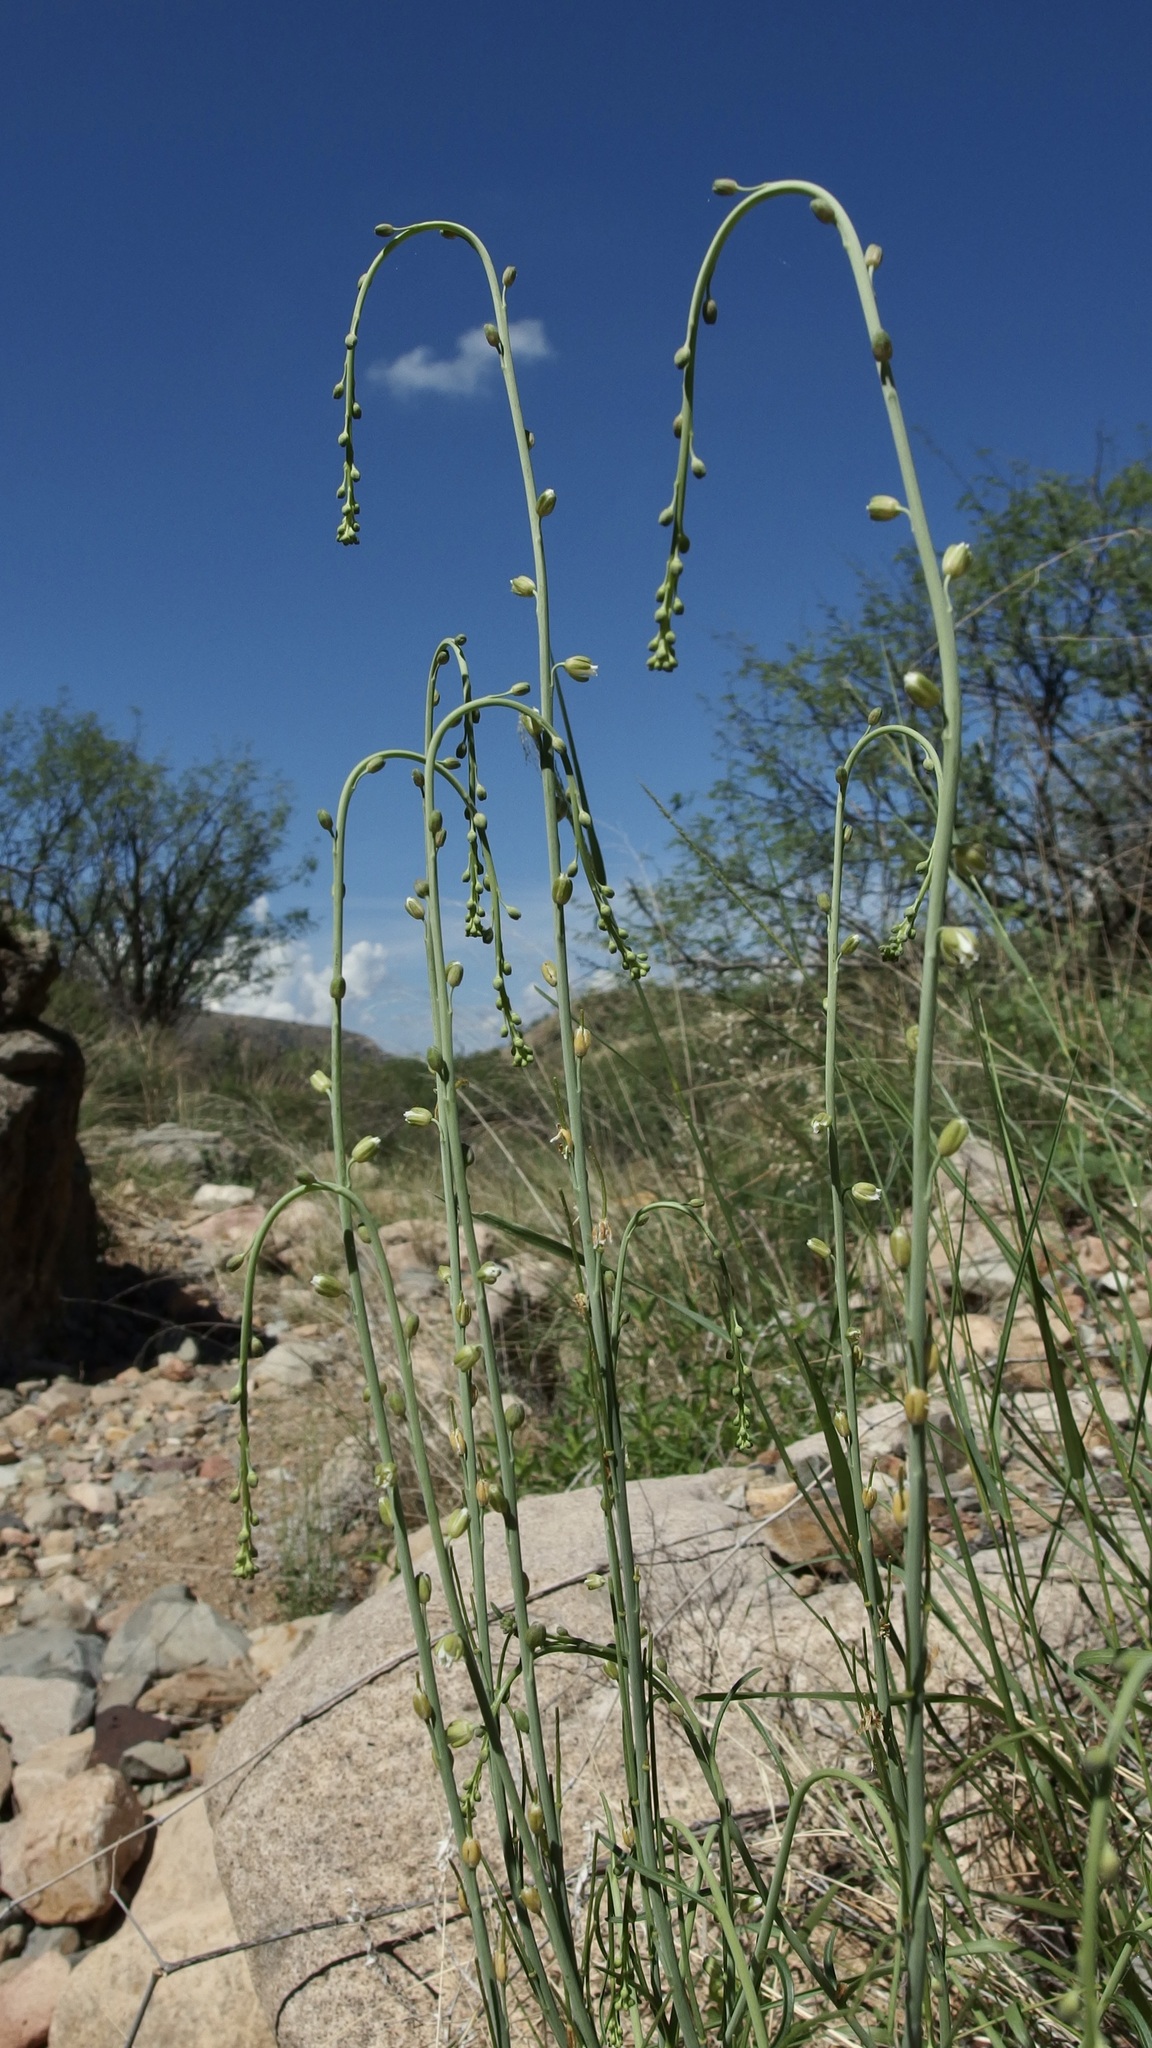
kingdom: Plantae
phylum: Tracheophyta
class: Magnoliopsida
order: Brassicales
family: Brassicaceae
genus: Pennellia
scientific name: Pennellia micrantha
